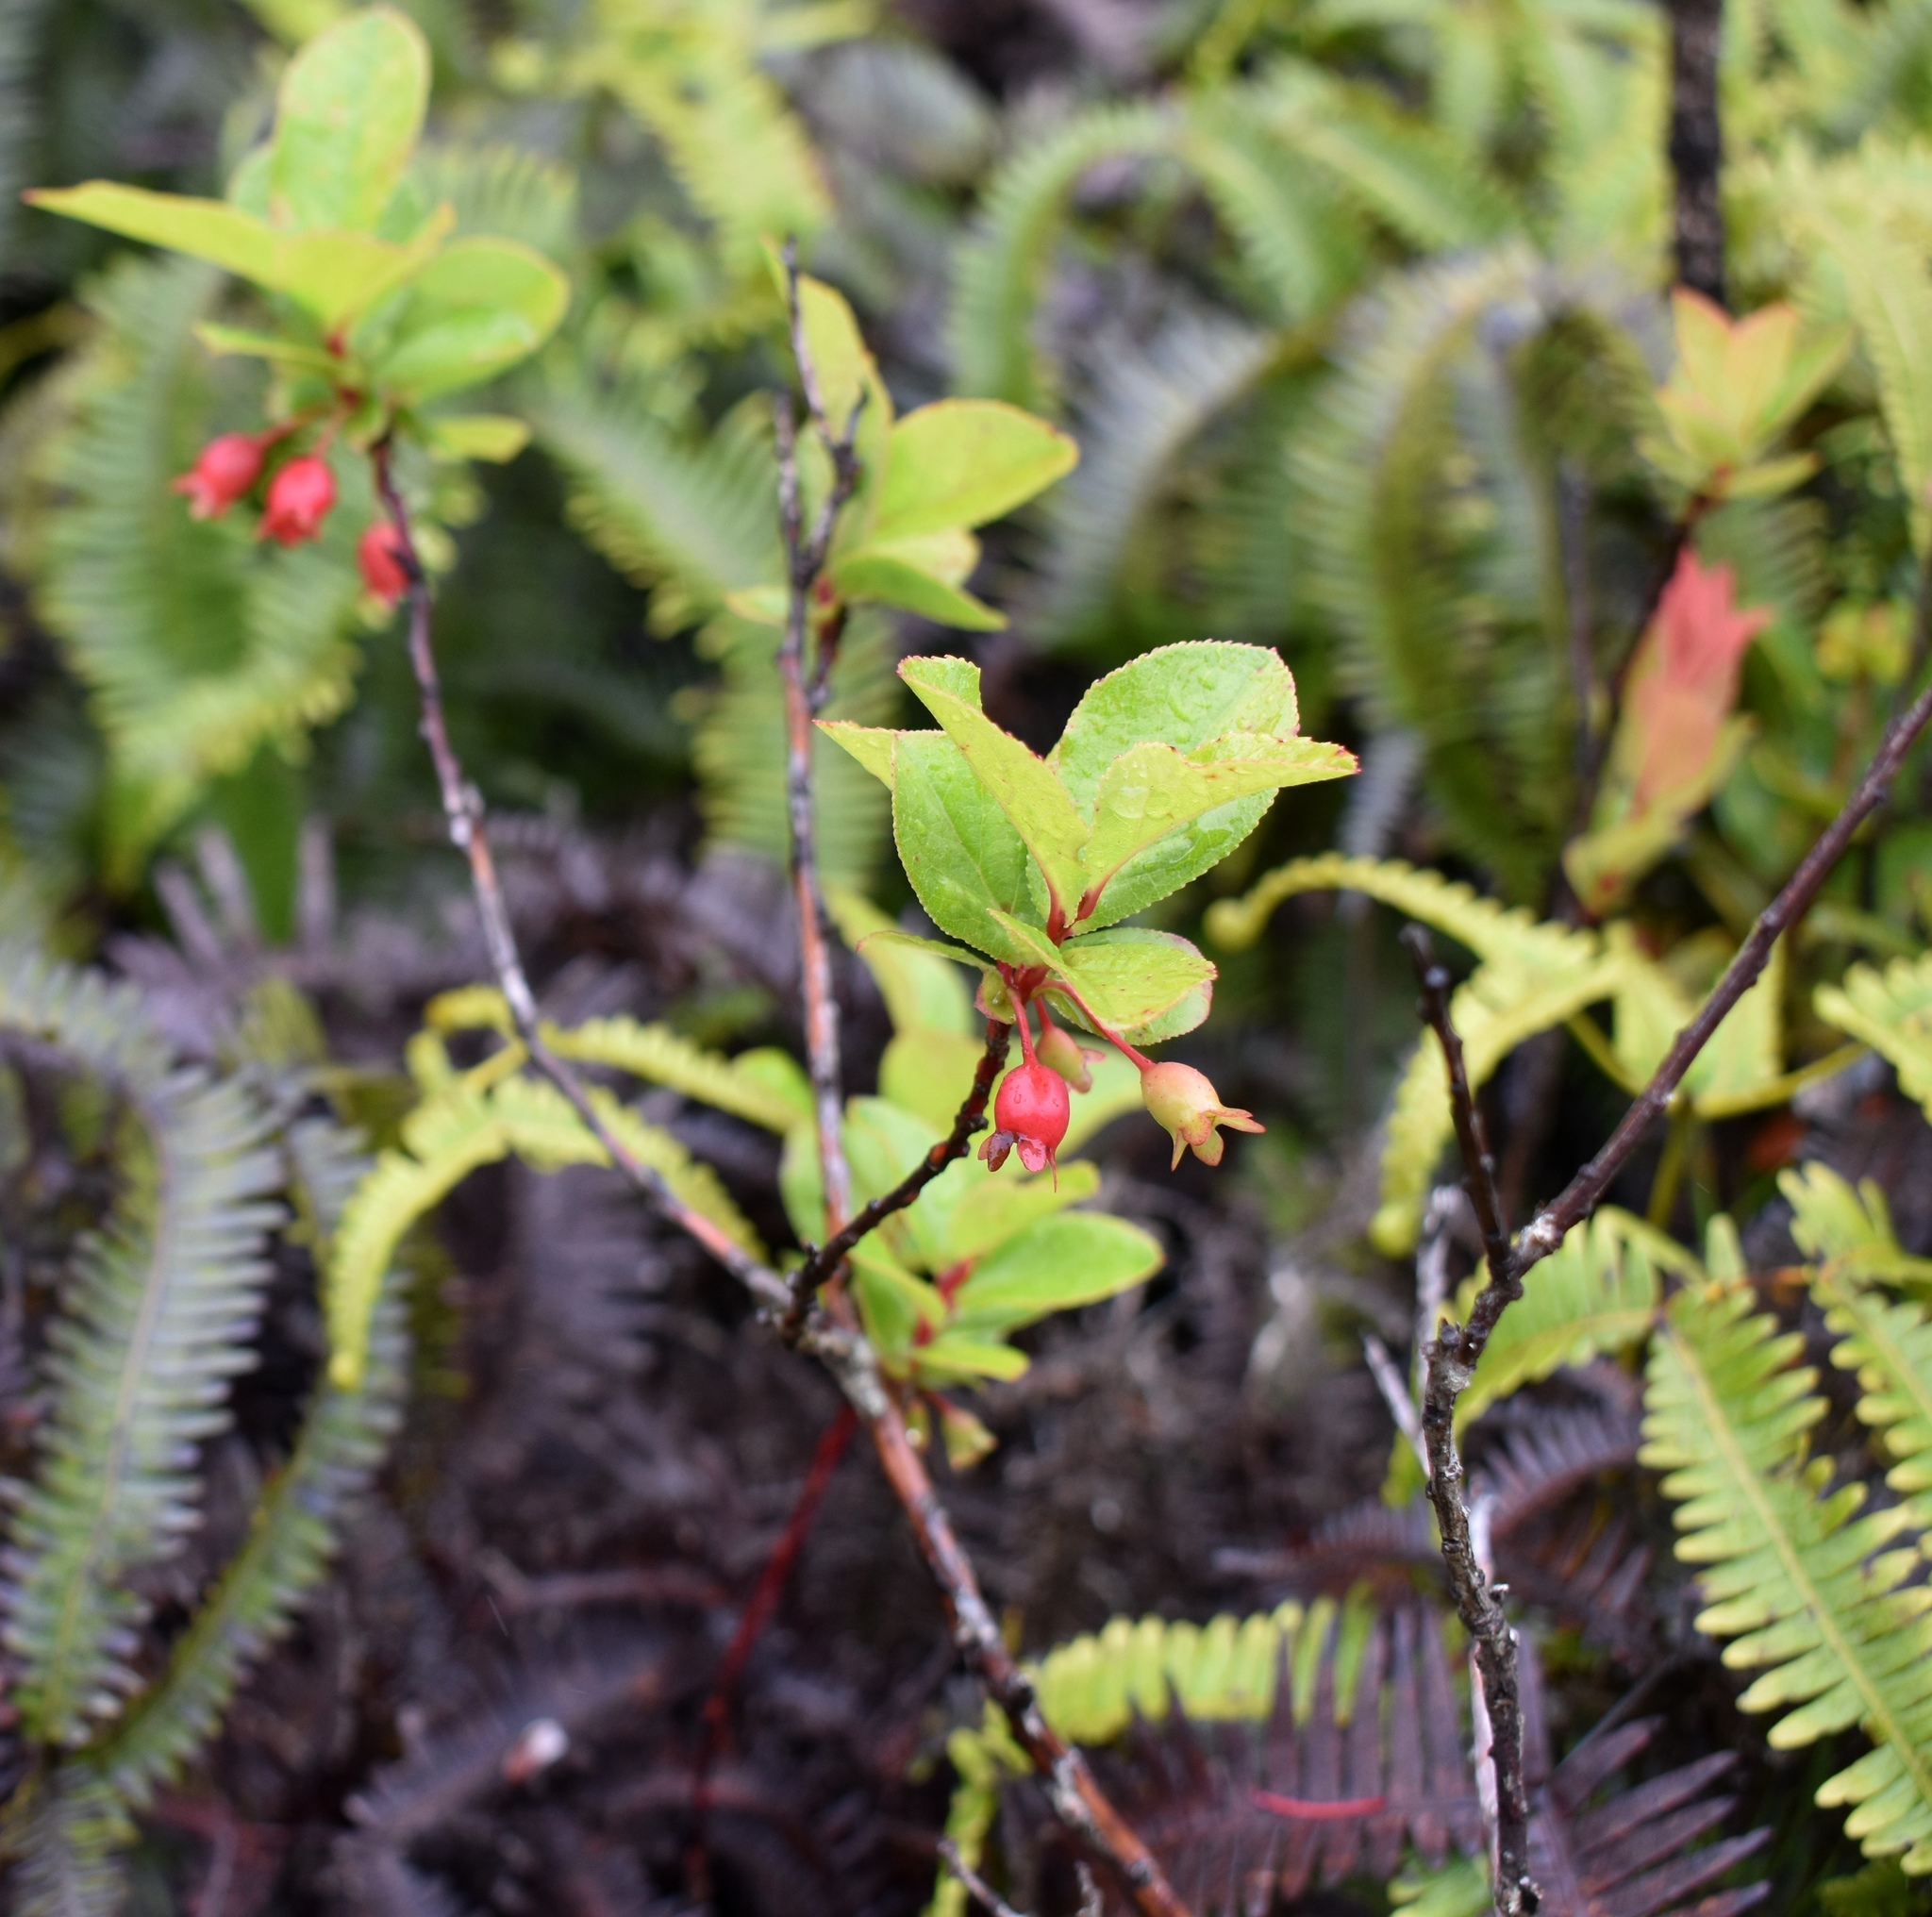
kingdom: Plantae
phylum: Tracheophyta
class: Magnoliopsida
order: Ericales
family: Ericaceae
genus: Vaccinium
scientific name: Vaccinium calycinum
